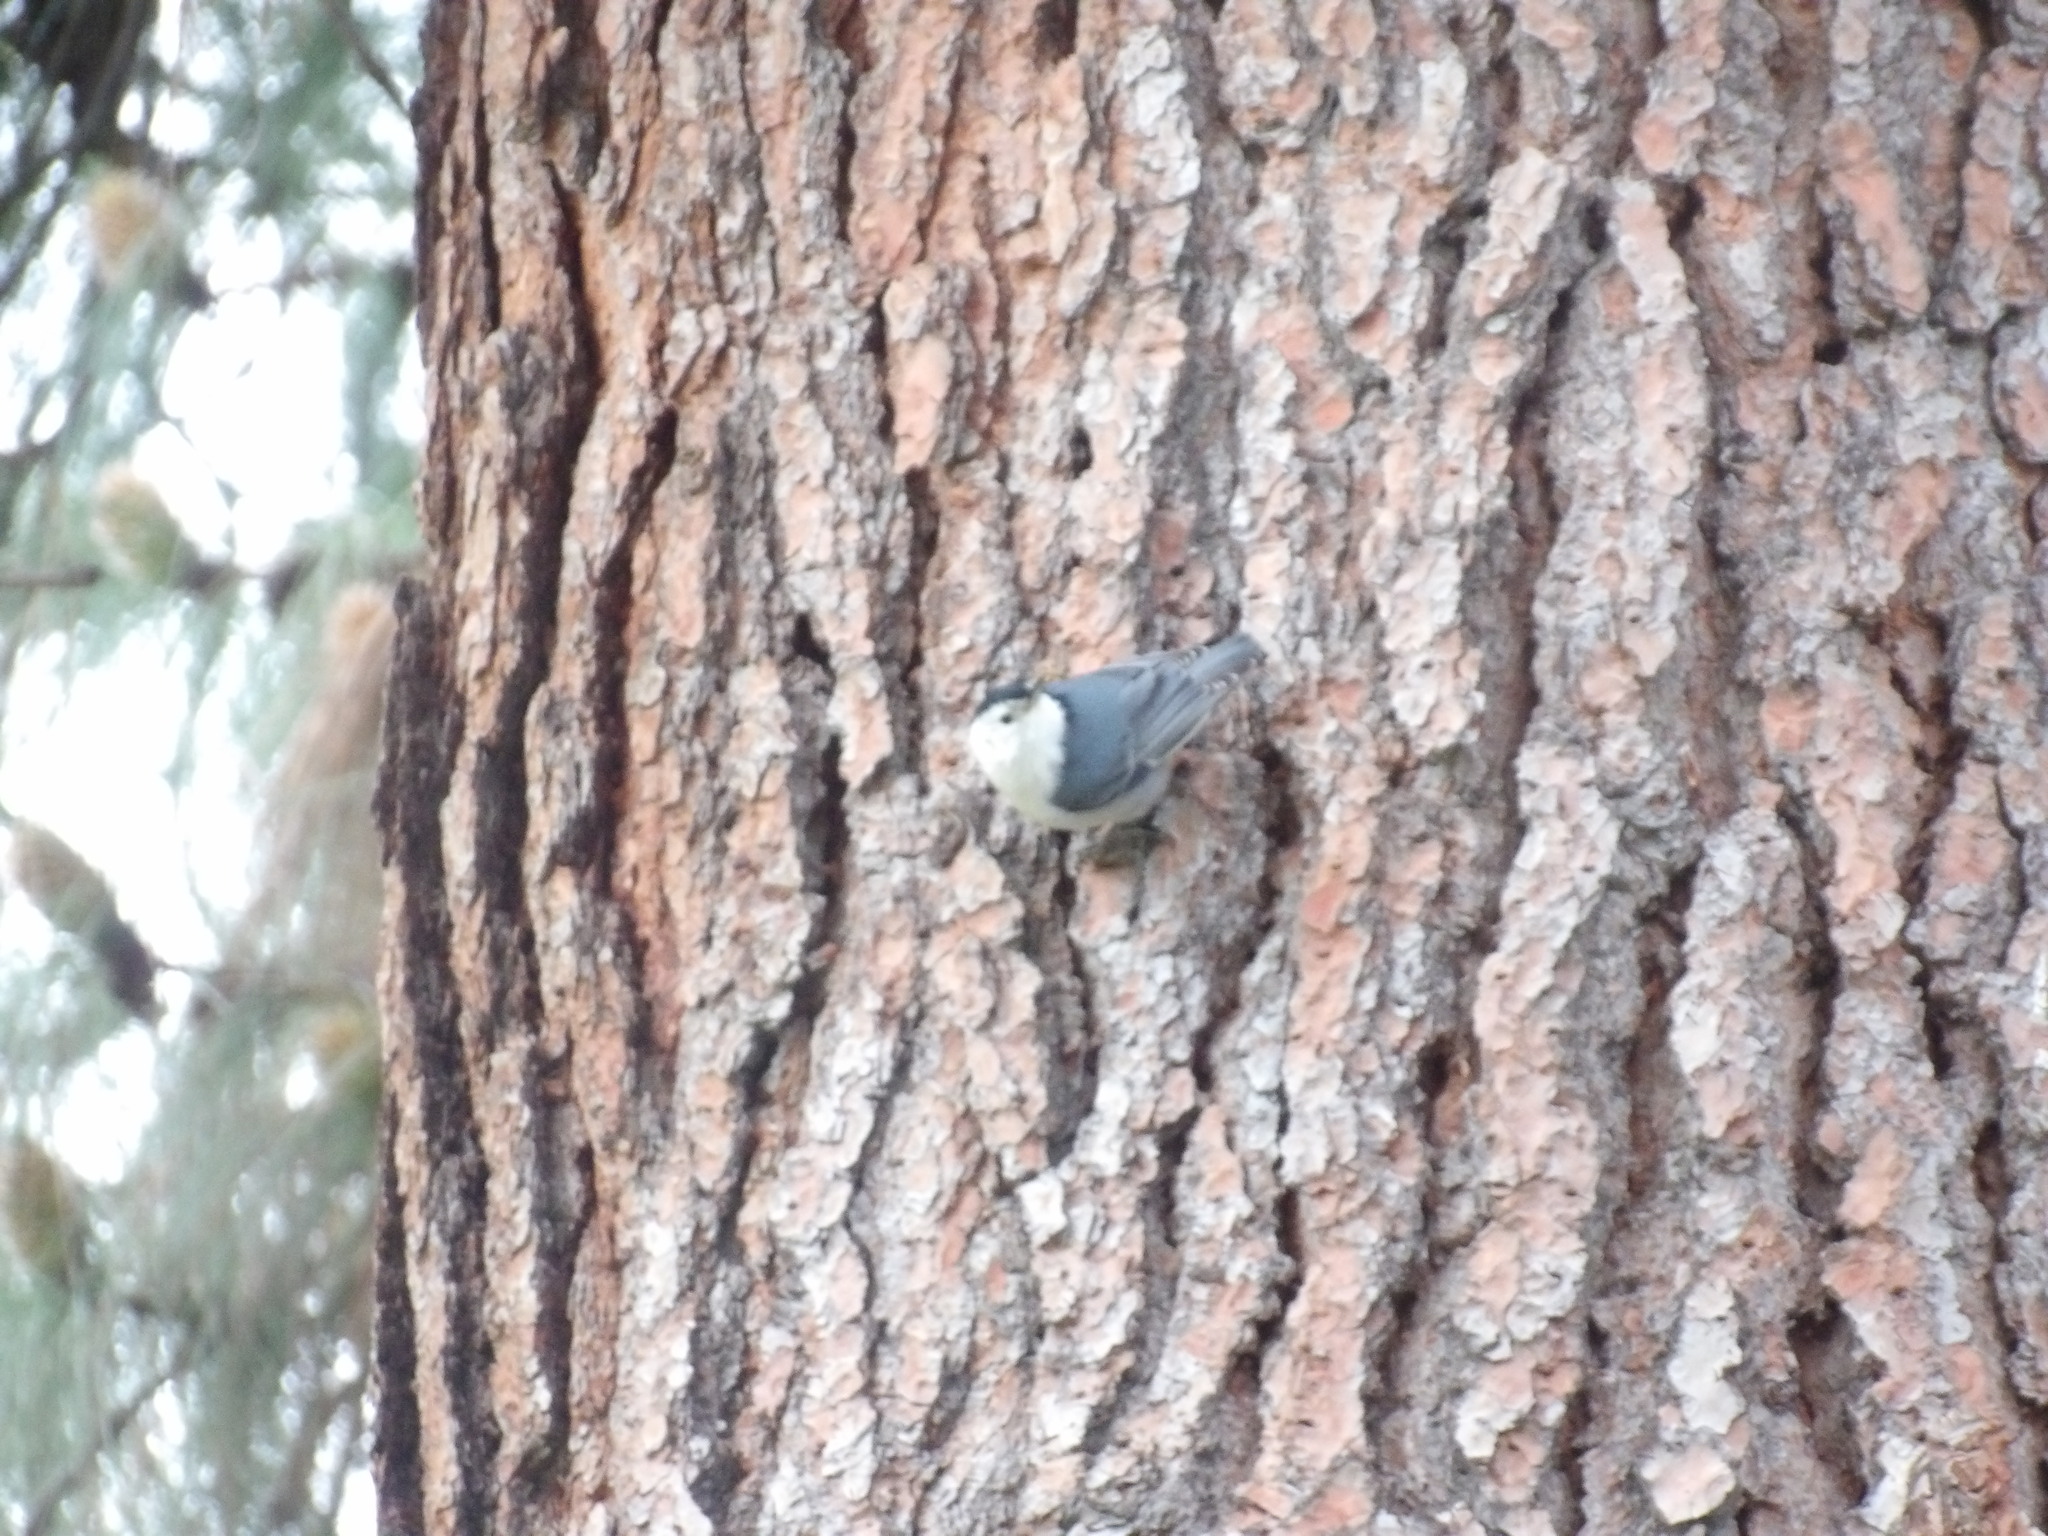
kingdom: Animalia
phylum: Chordata
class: Aves
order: Passeriformes
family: Sittidae
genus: Sitta
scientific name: Sitta carolinensis
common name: White-breasted nuthatch
